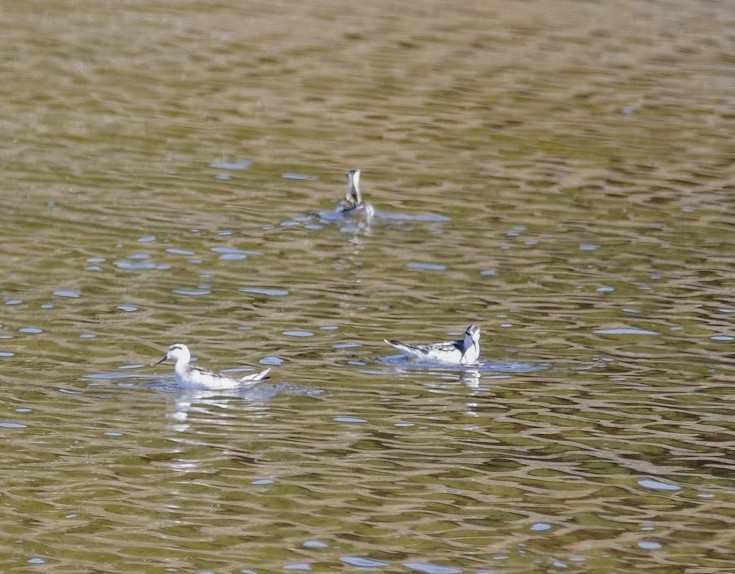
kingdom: Animalia
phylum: Chordata
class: Aves
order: Charadriiformes
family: Scolopacidae
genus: Phalaropus
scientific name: Phalaropus lobatus
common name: Red-necked phalarope
